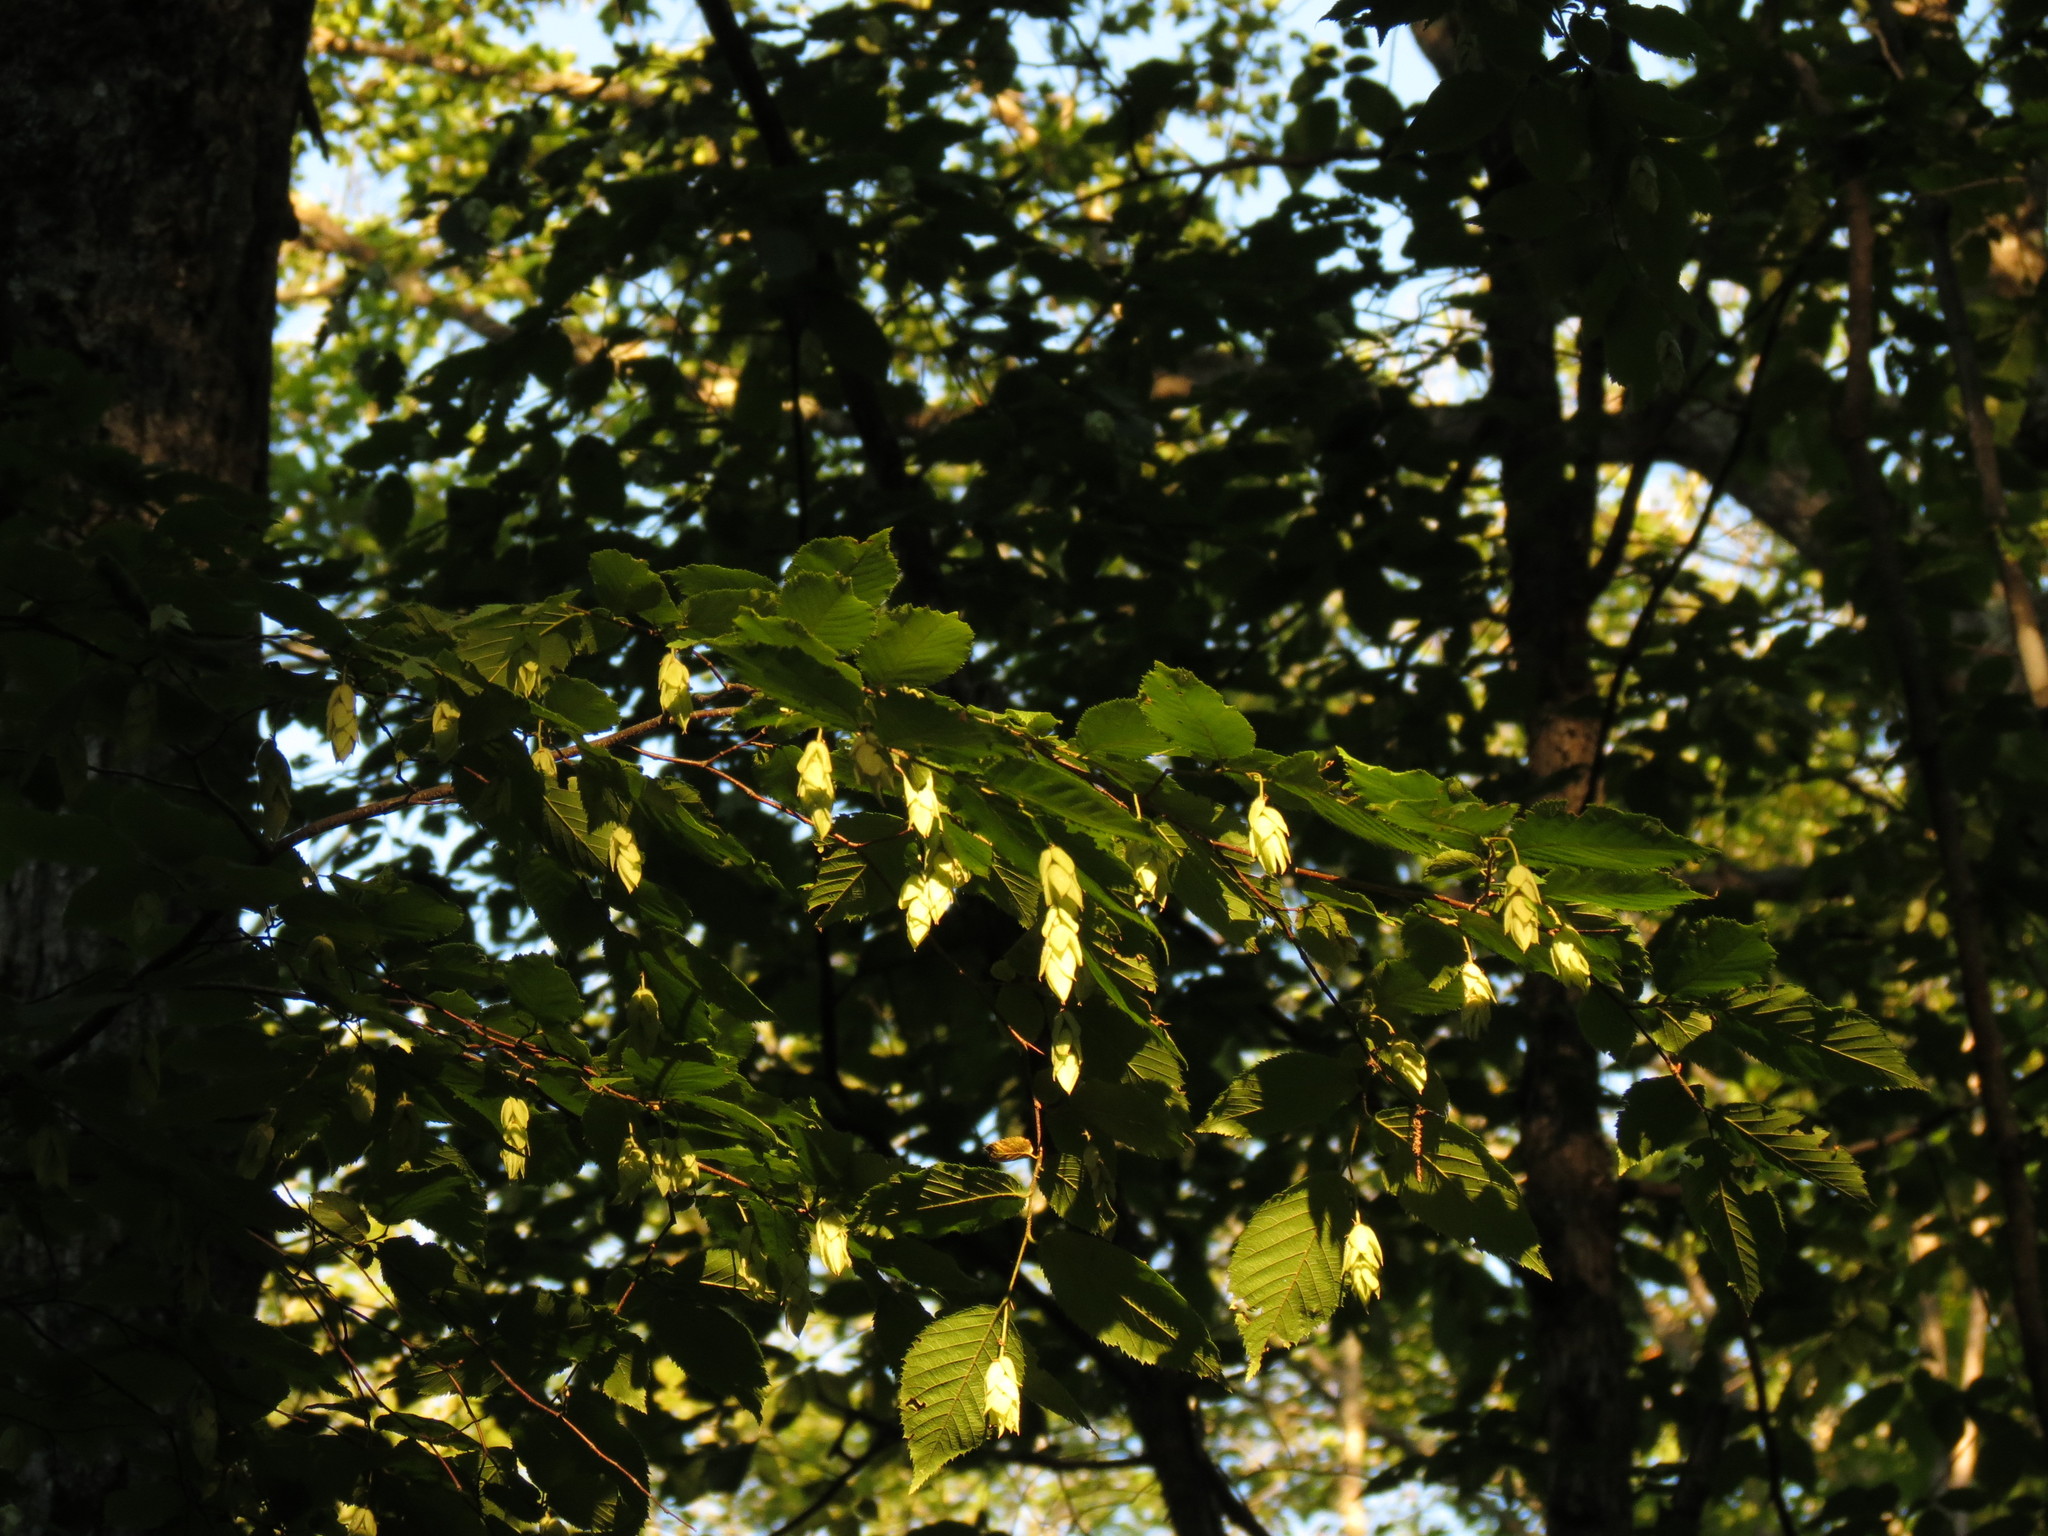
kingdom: Plantae
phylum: Tracheophyta
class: Magnoliopsida
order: Fagales
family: Betulaceae
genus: Ostrya
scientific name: Ostrya virginiana
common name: Ironwood
